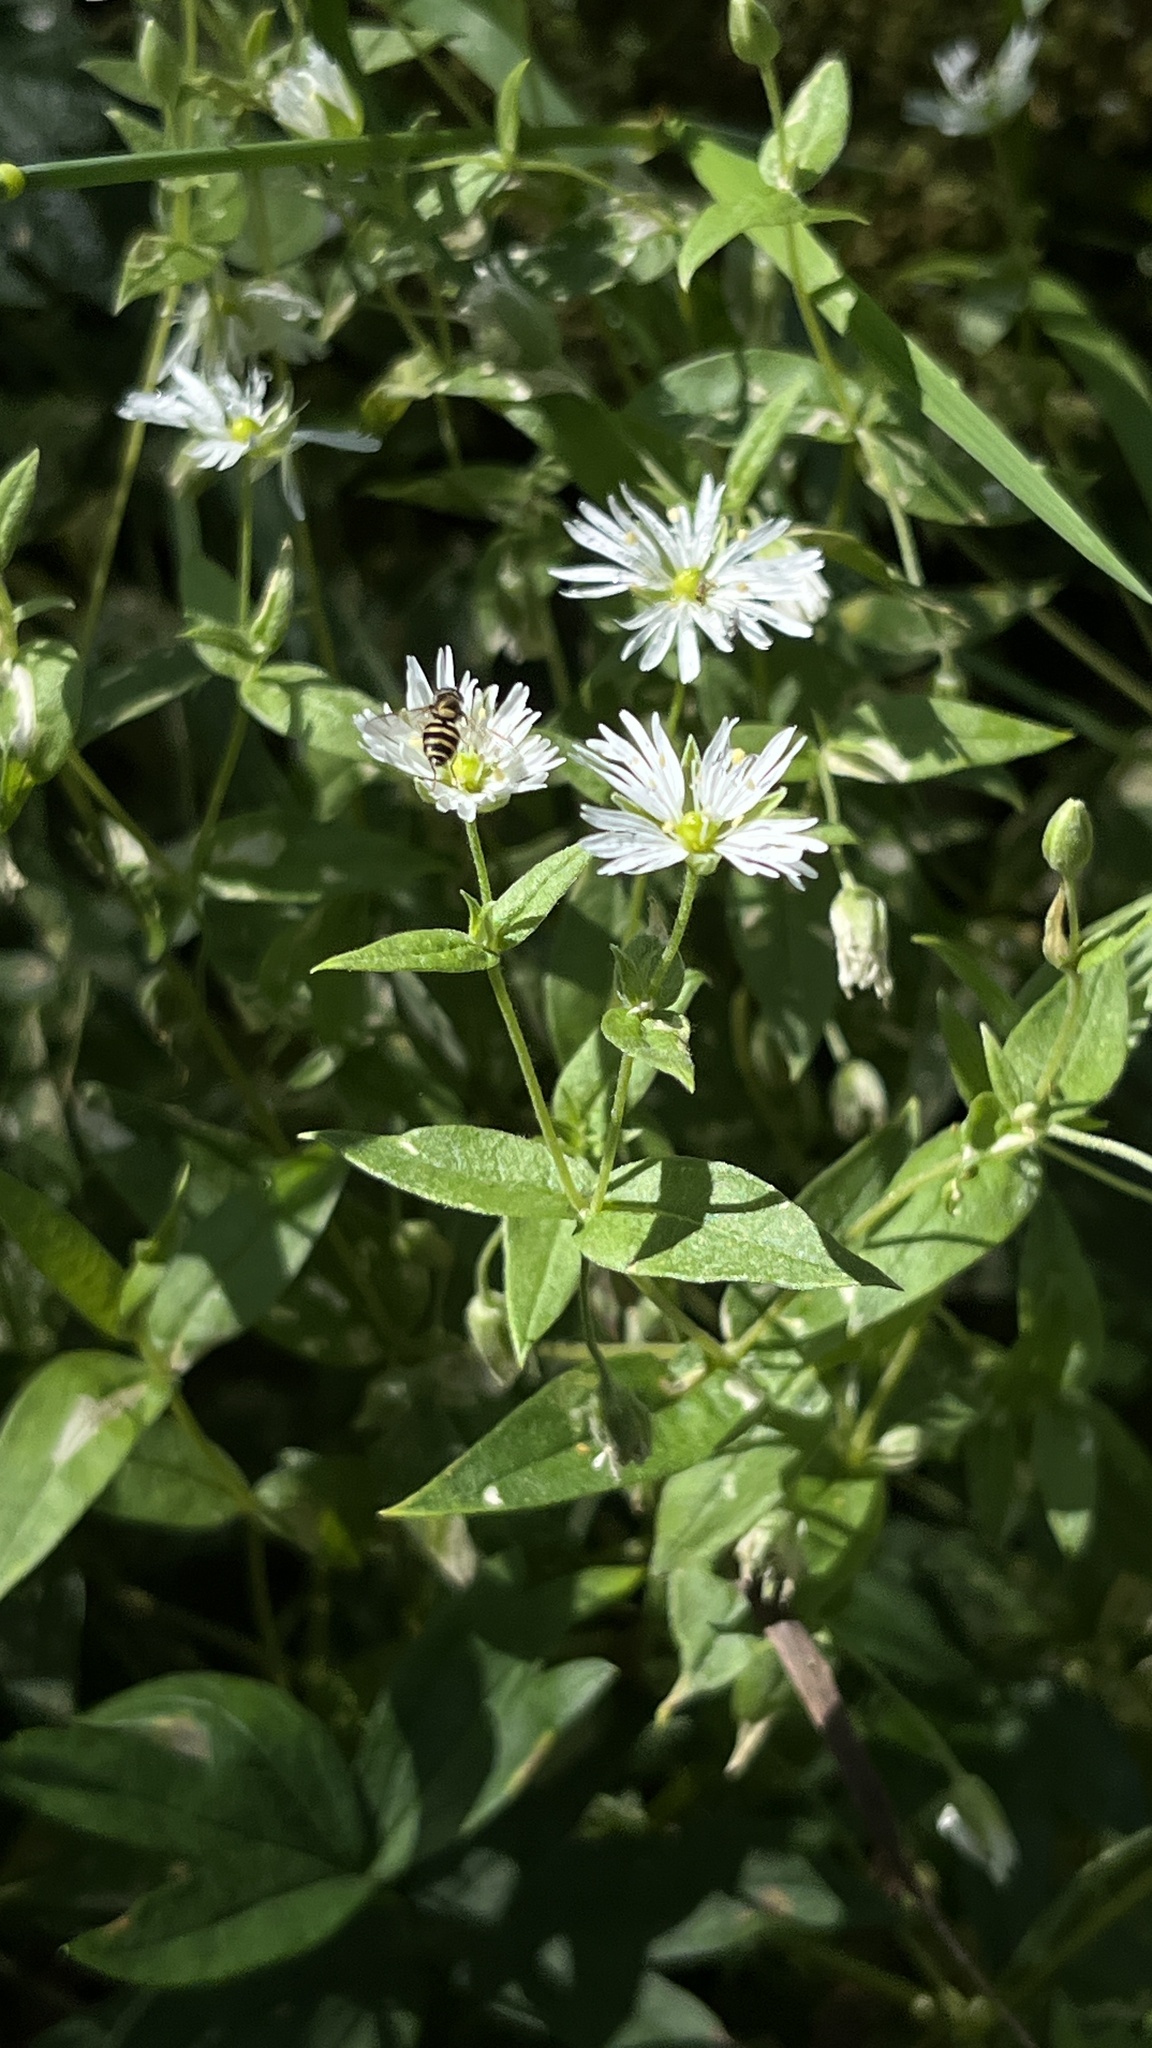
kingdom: Plantae
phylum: Tracheophyta
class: Magnoliopsida
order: Caryophyllales
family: Caryophyllaceae
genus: Stellaria
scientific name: Stellaria radians
